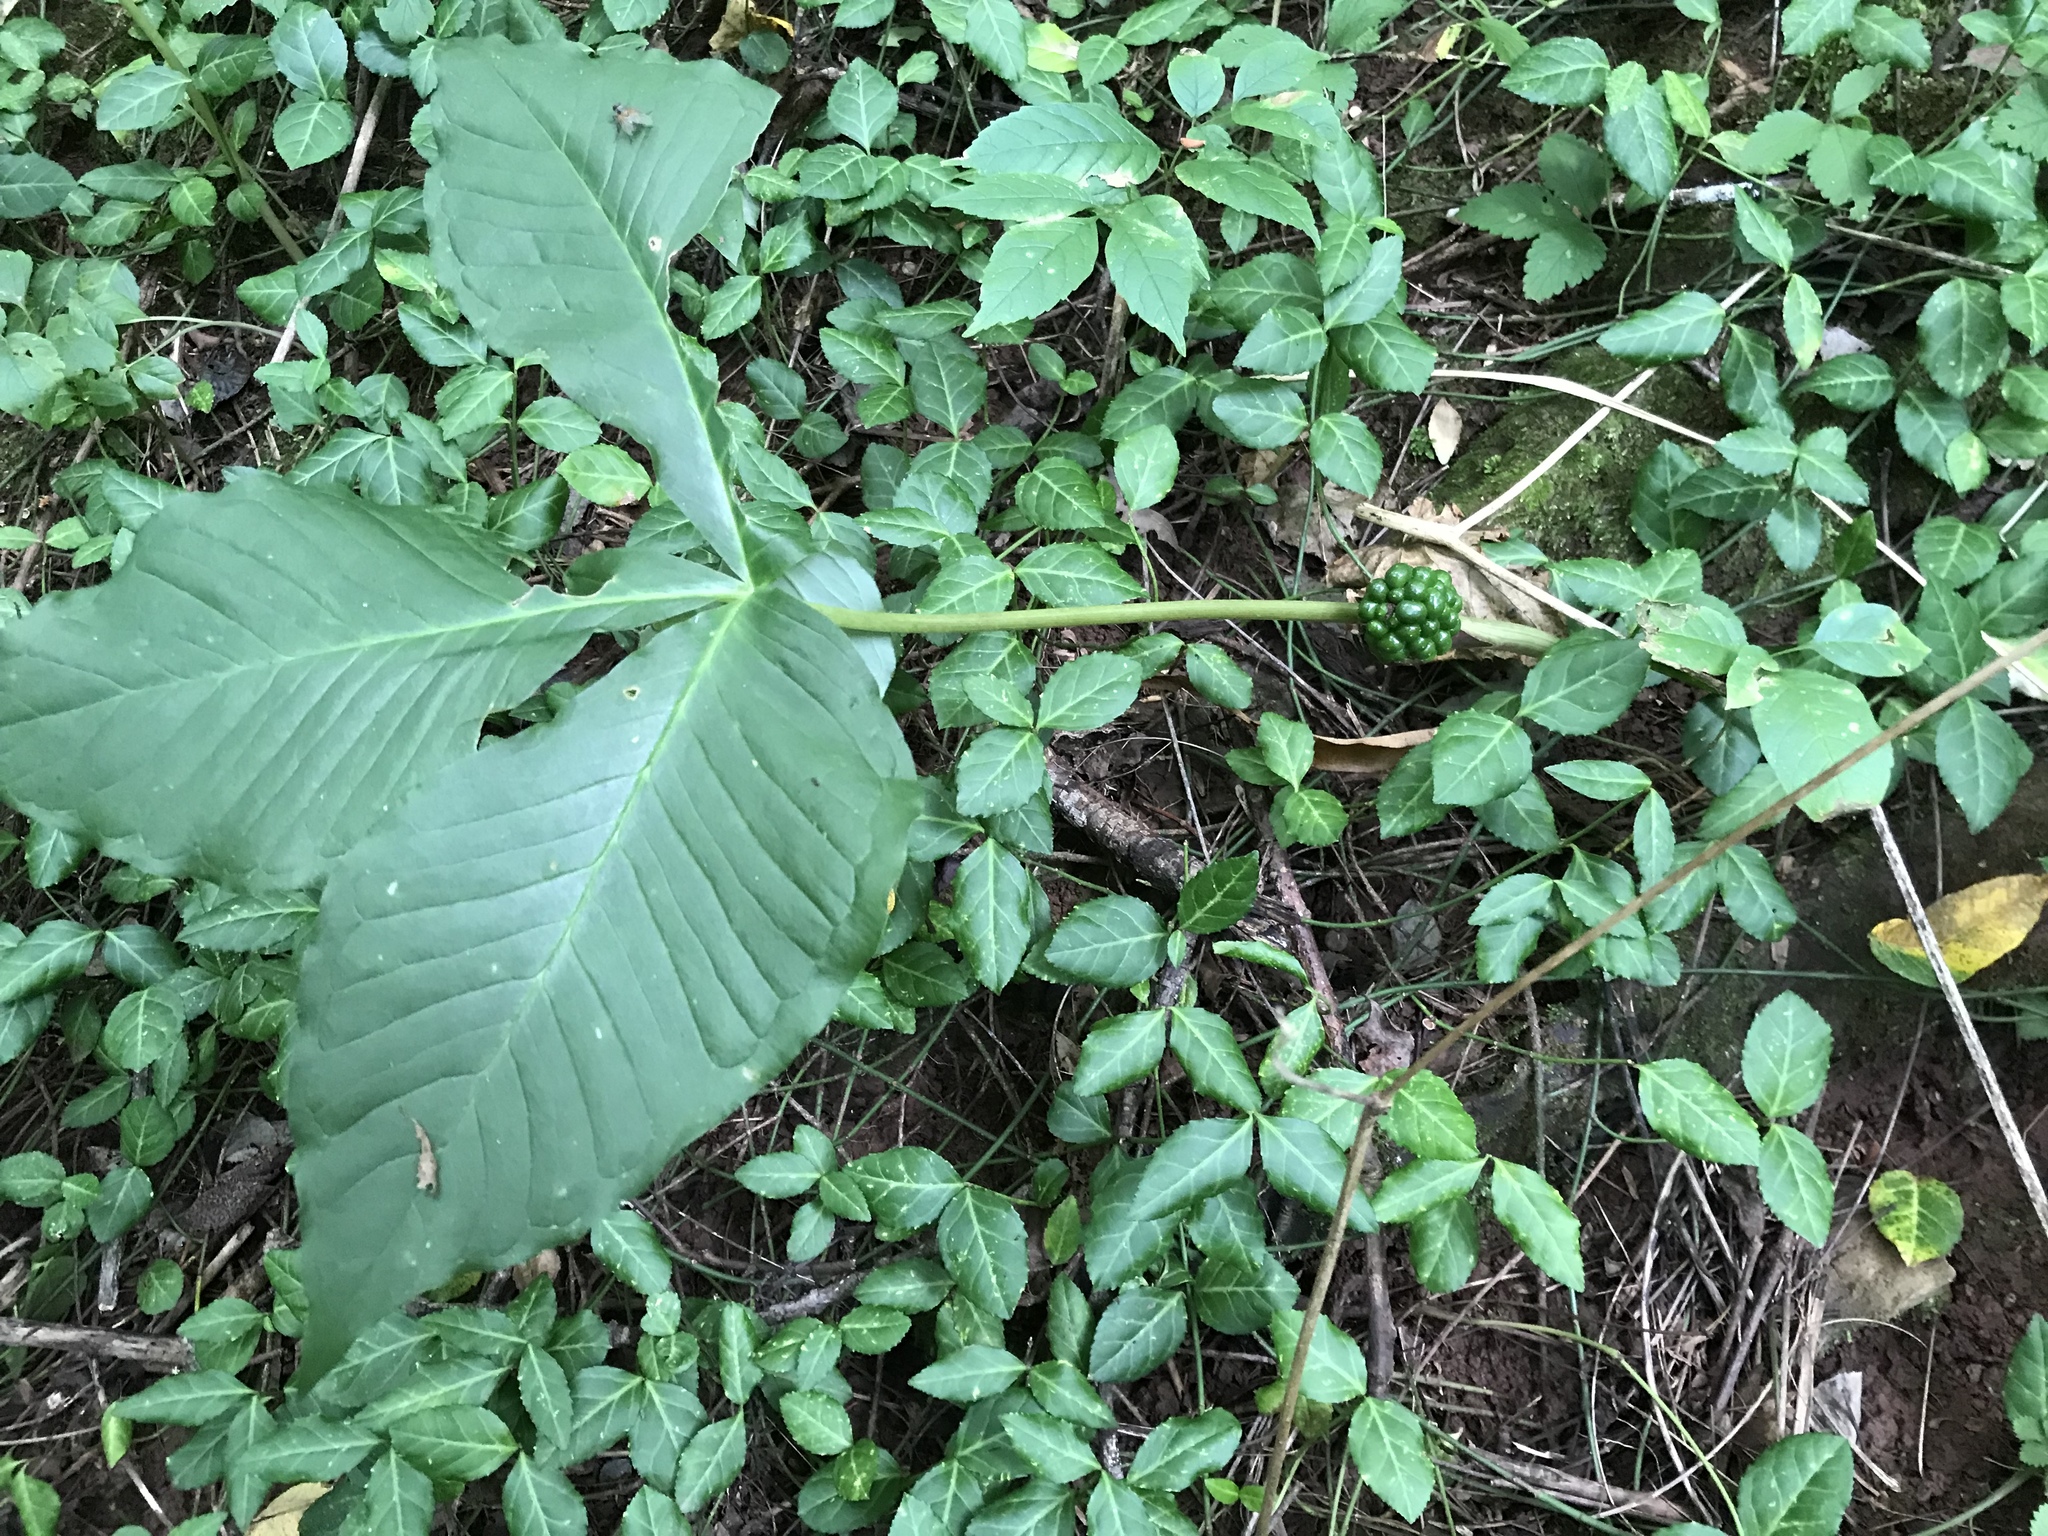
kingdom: Plantae
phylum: Tracheophyta
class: Liliopsida
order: Alismatales
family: Araceae
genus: Arisaema
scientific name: Arisaema triphyllum
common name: Jack-in-the-pulpit
